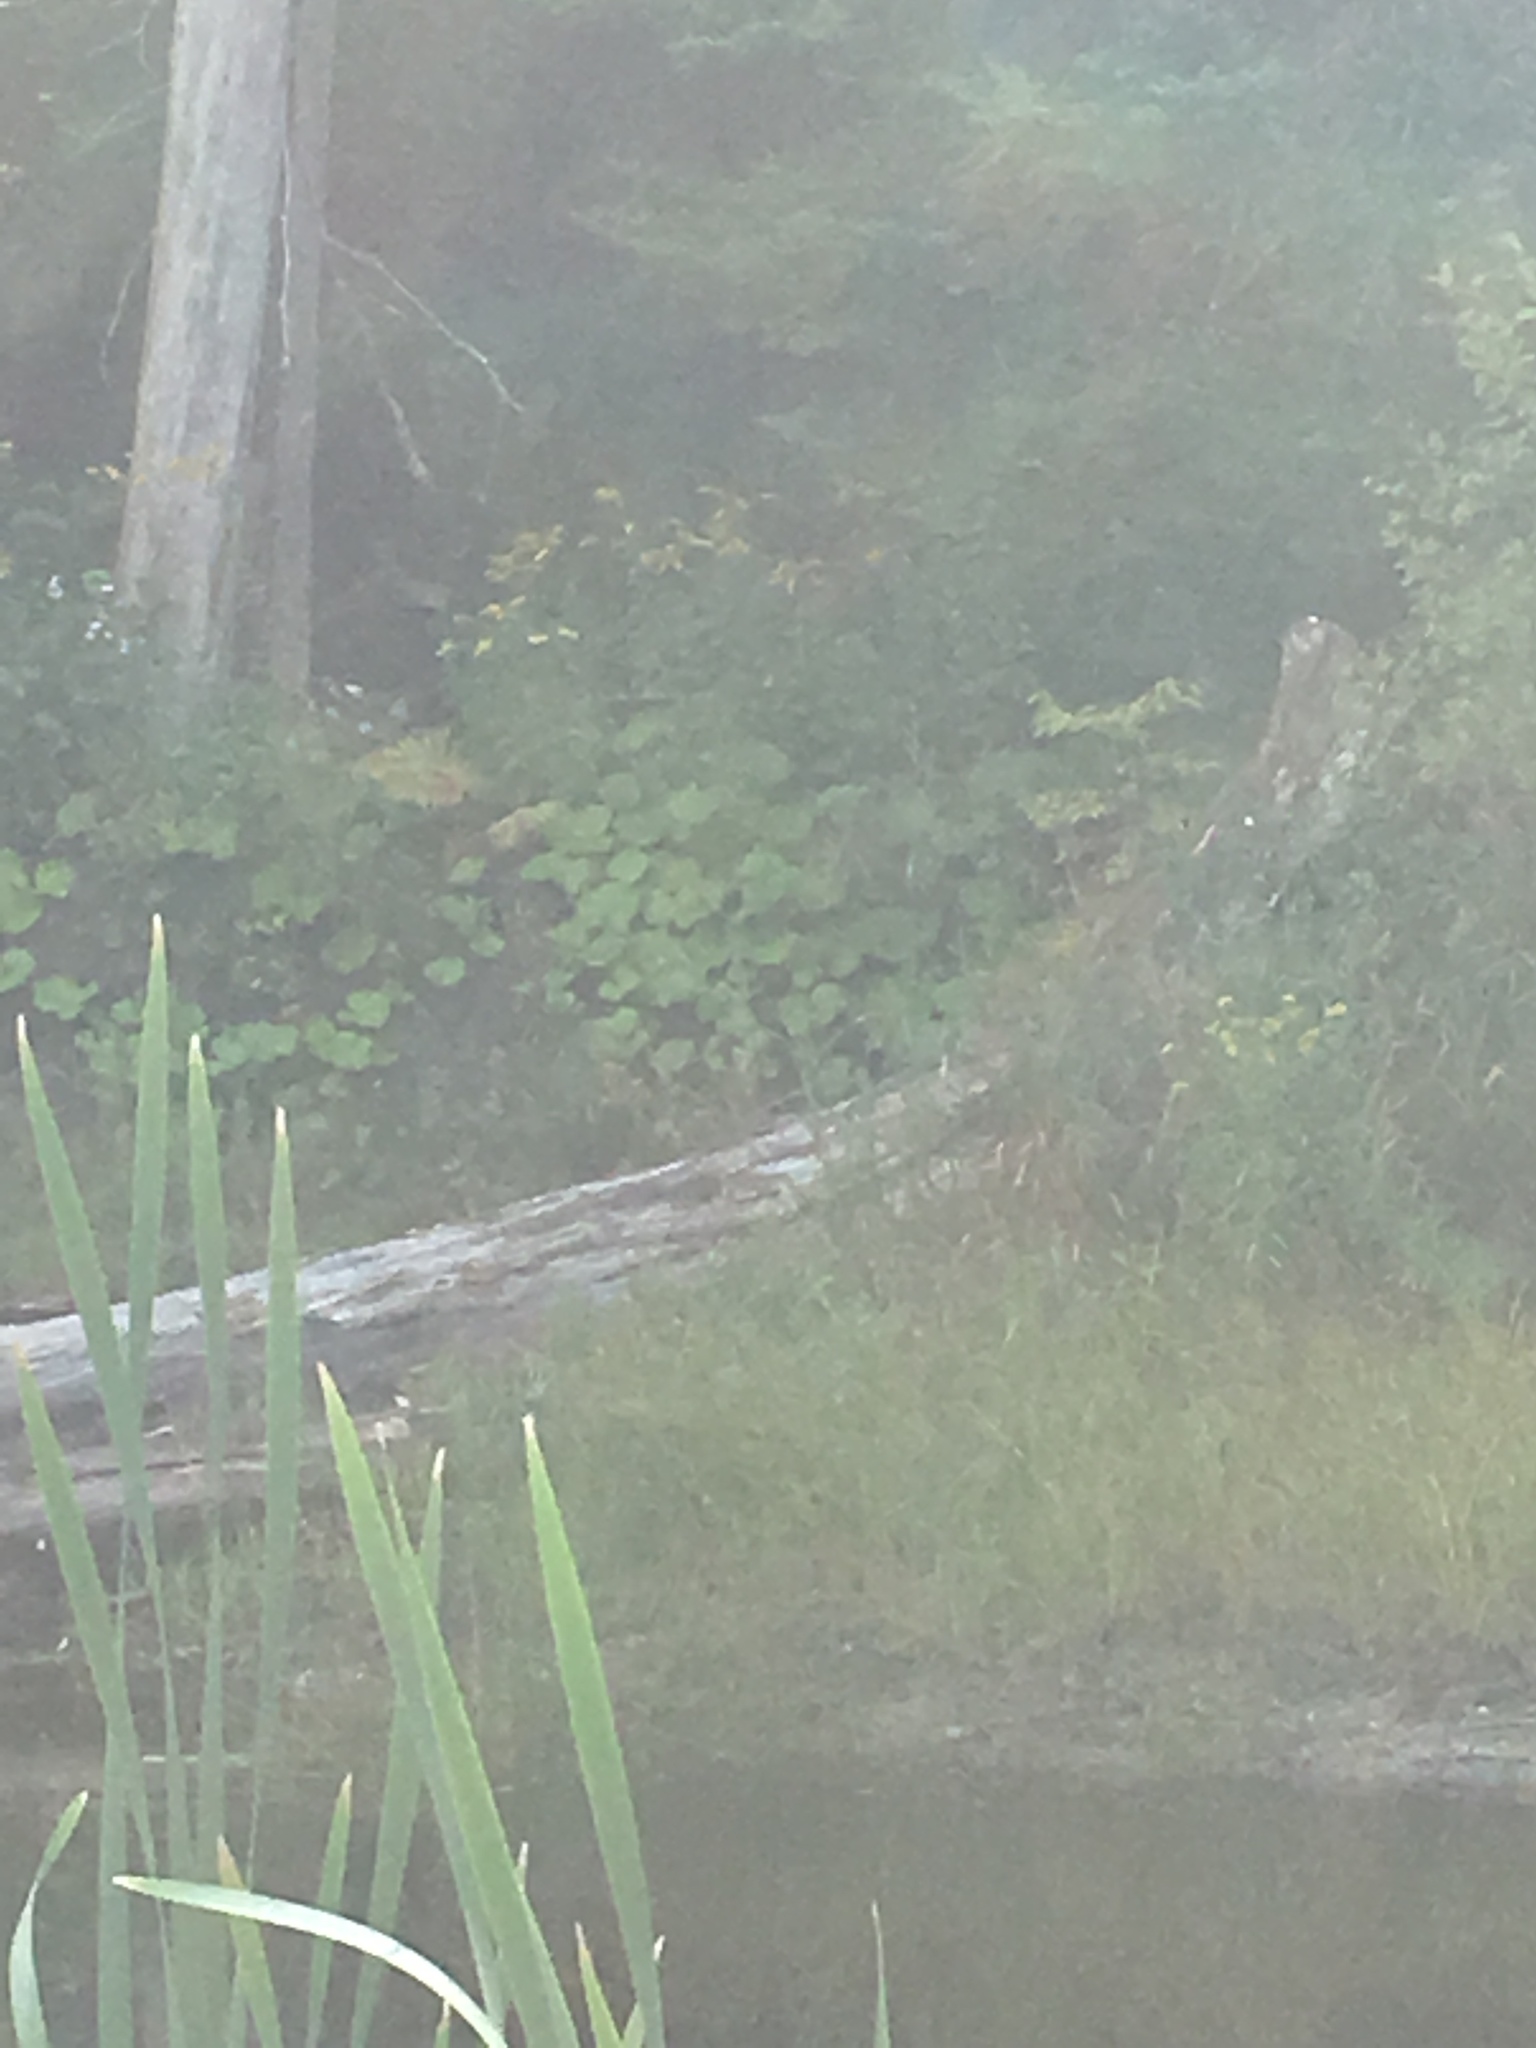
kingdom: Plantae
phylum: Tracheophyta
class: Magnoliopsida
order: Asterales
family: Asteraceae
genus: Tussilago
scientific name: Tussilago farfara
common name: Coltsfoot
